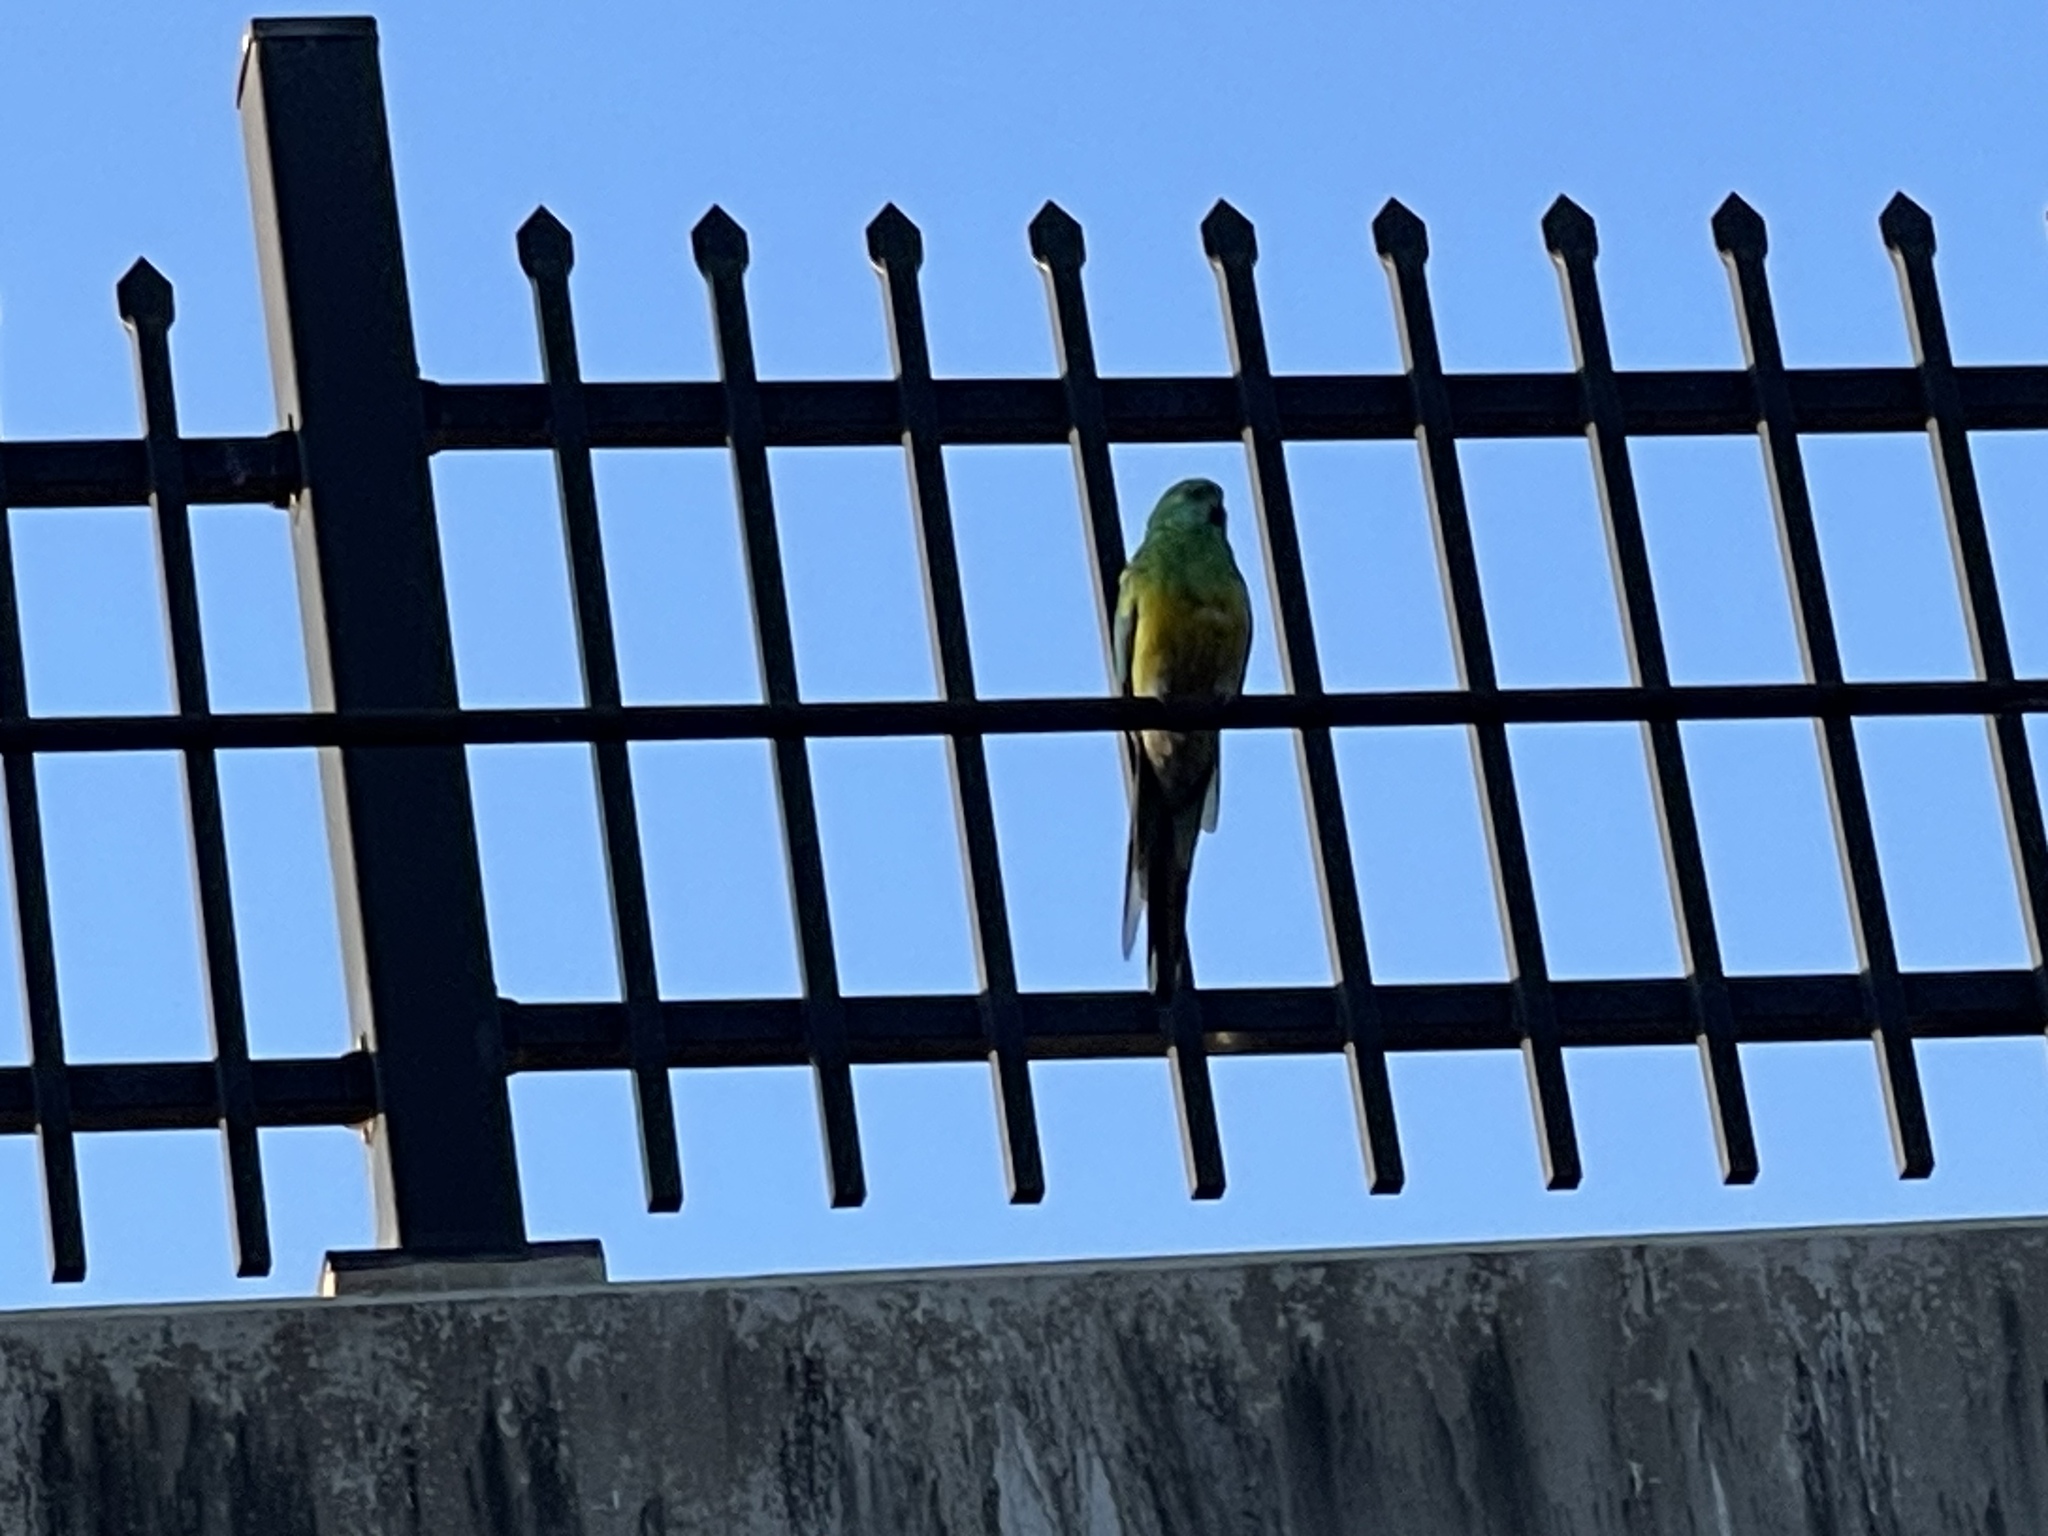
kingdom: Animalia
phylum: Chordata
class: Aves
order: Psittaciformes
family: Psittacidae
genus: Psephotus
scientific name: Psephotus haematonotus
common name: Red-rumped parrot
